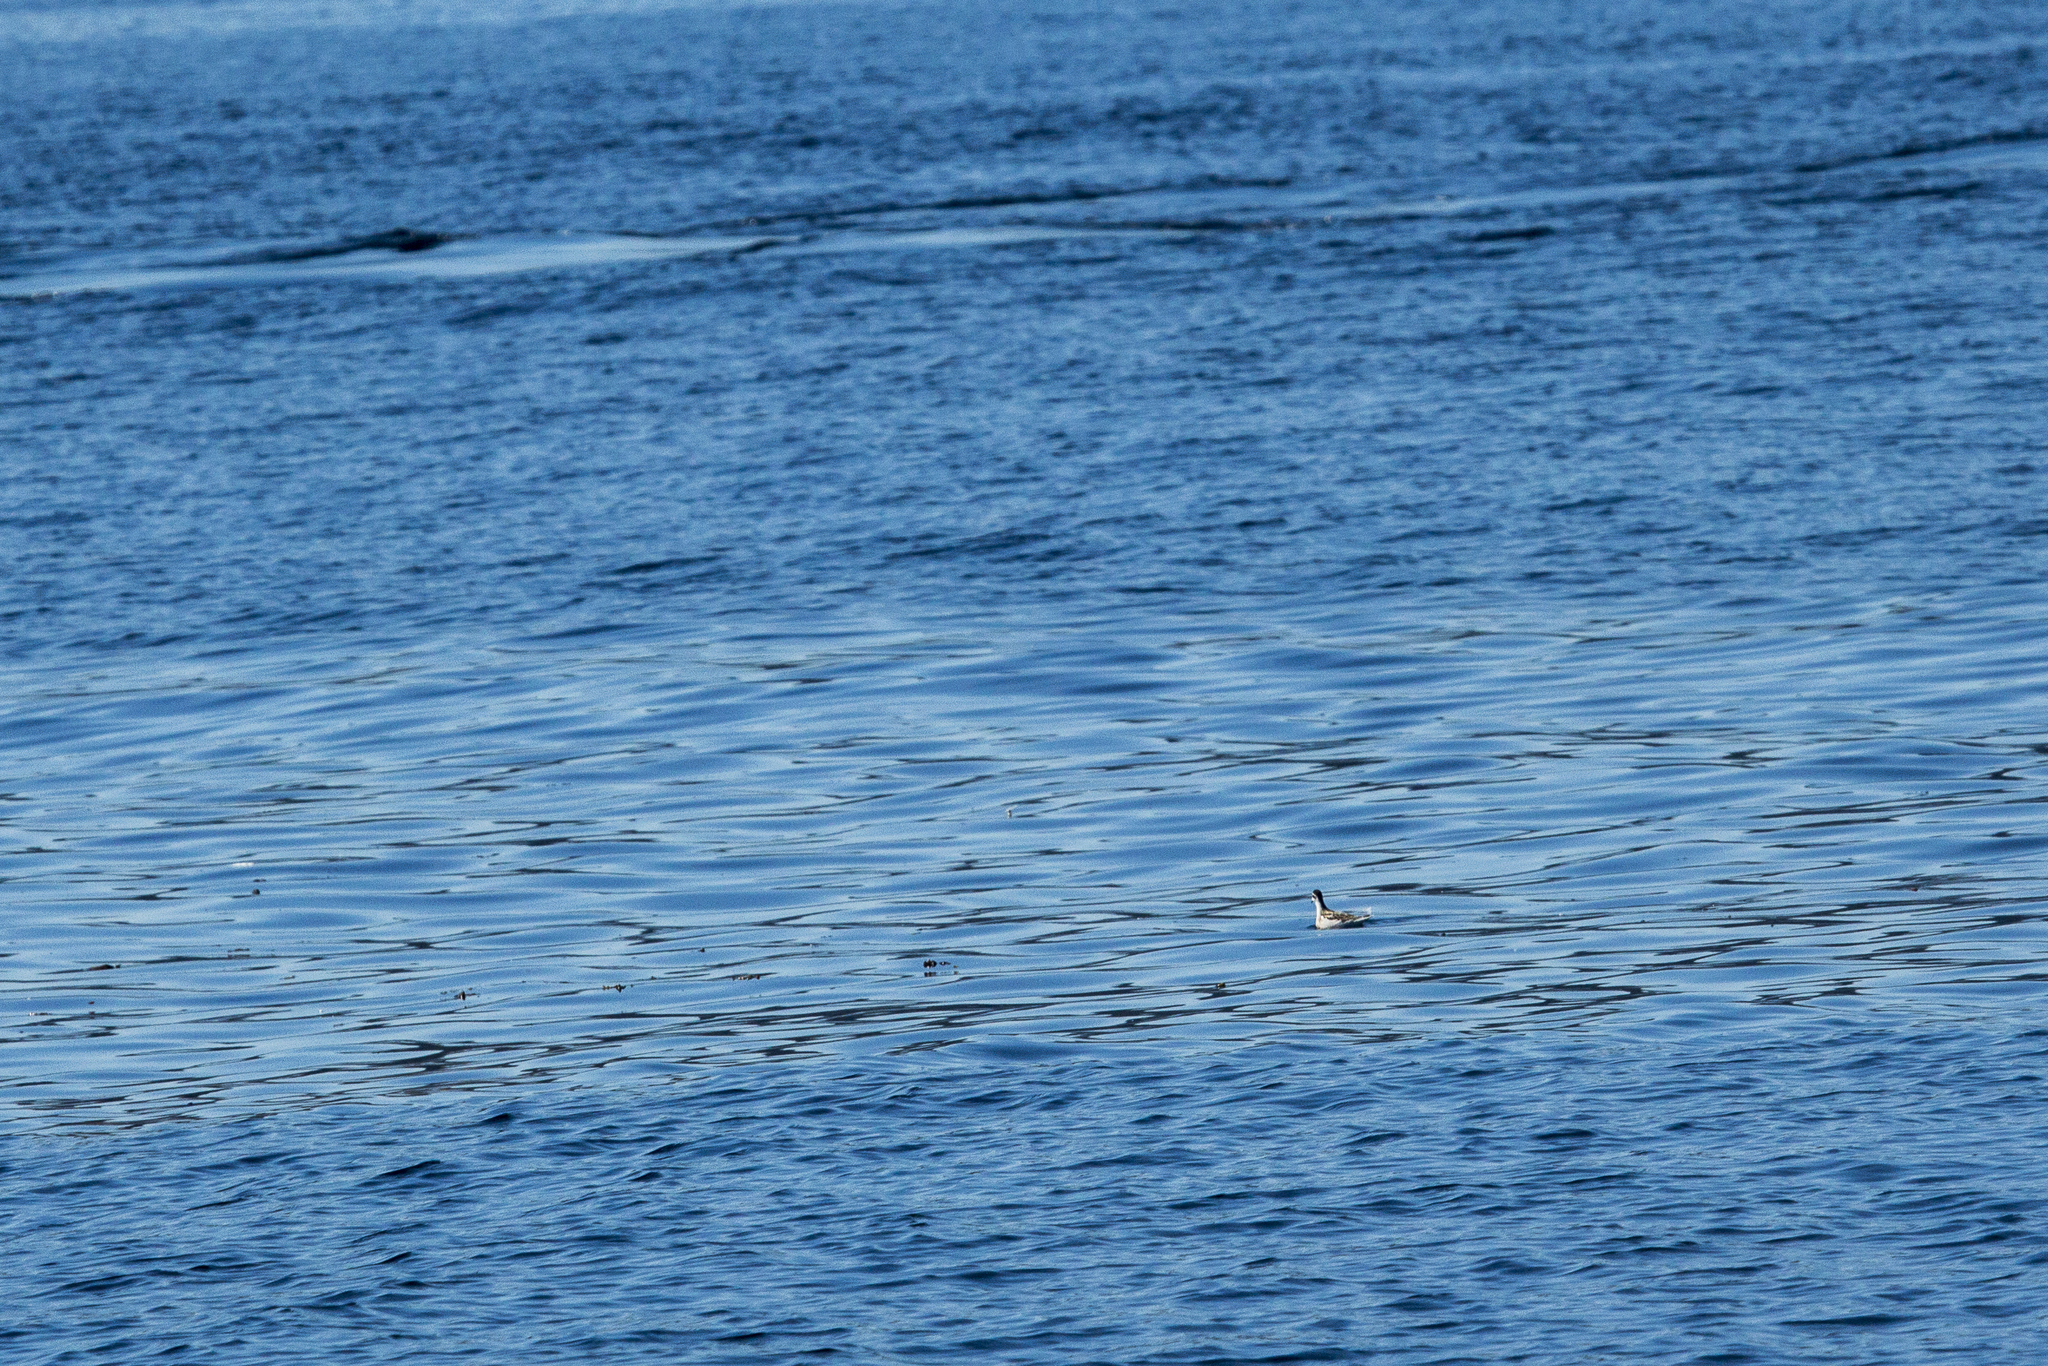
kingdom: Animalia
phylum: Chordata
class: Aves
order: Charadriiformes
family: Scolopacidae
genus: Phalaropus
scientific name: Phalaropus lobatus
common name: Red-necked phalarope
